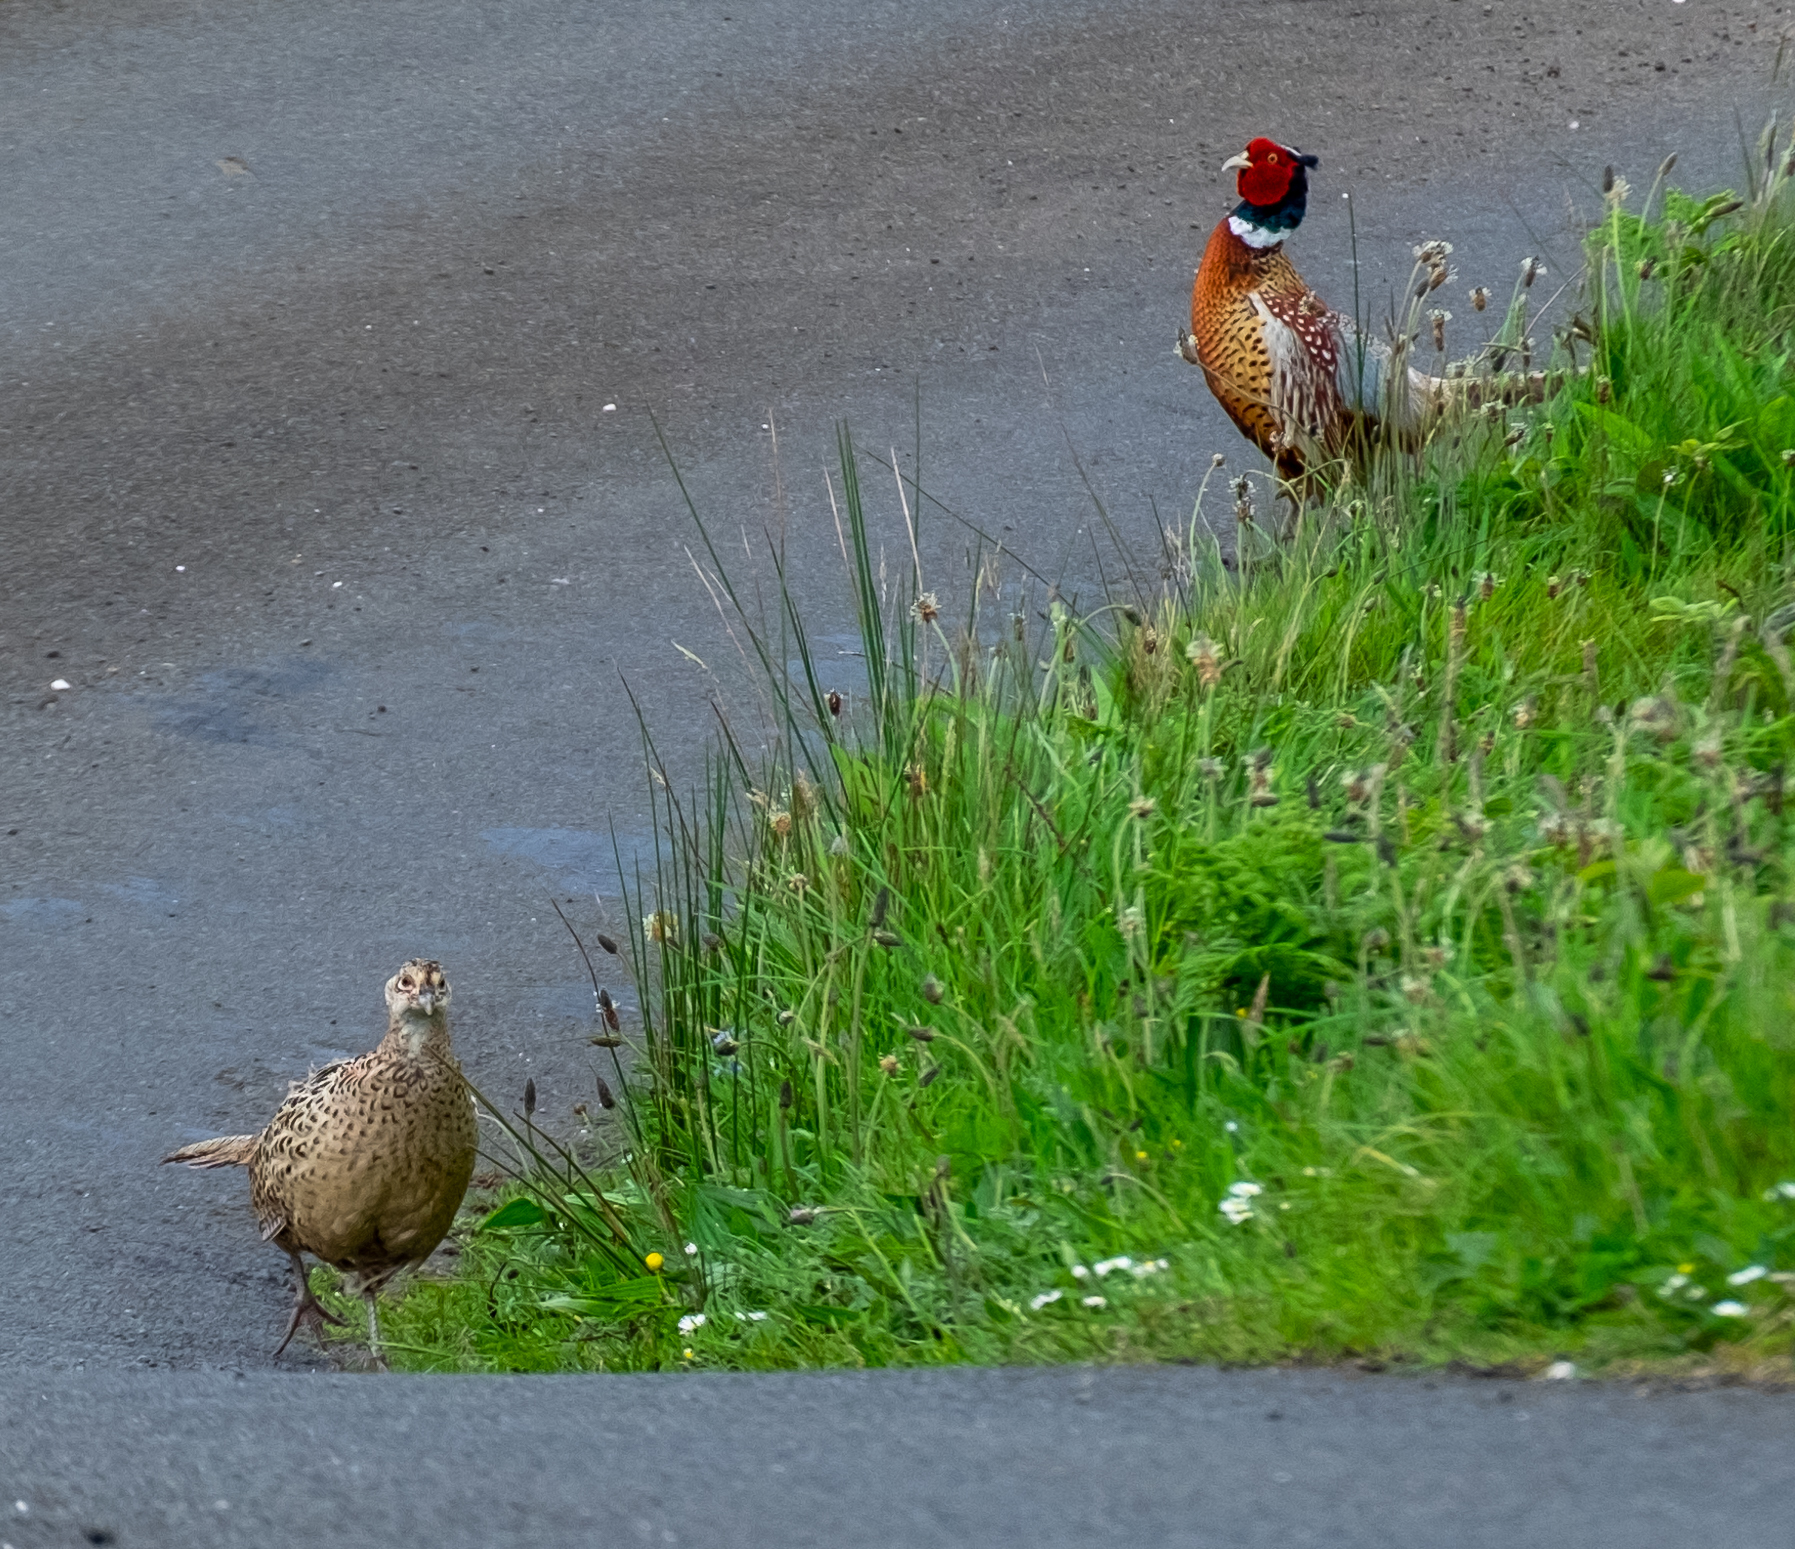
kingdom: Animalia
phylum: Chordata
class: Aves
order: Galliformes
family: Phasianidae
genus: Phasianus
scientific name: Phasianus colchicus
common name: Common pheasant
